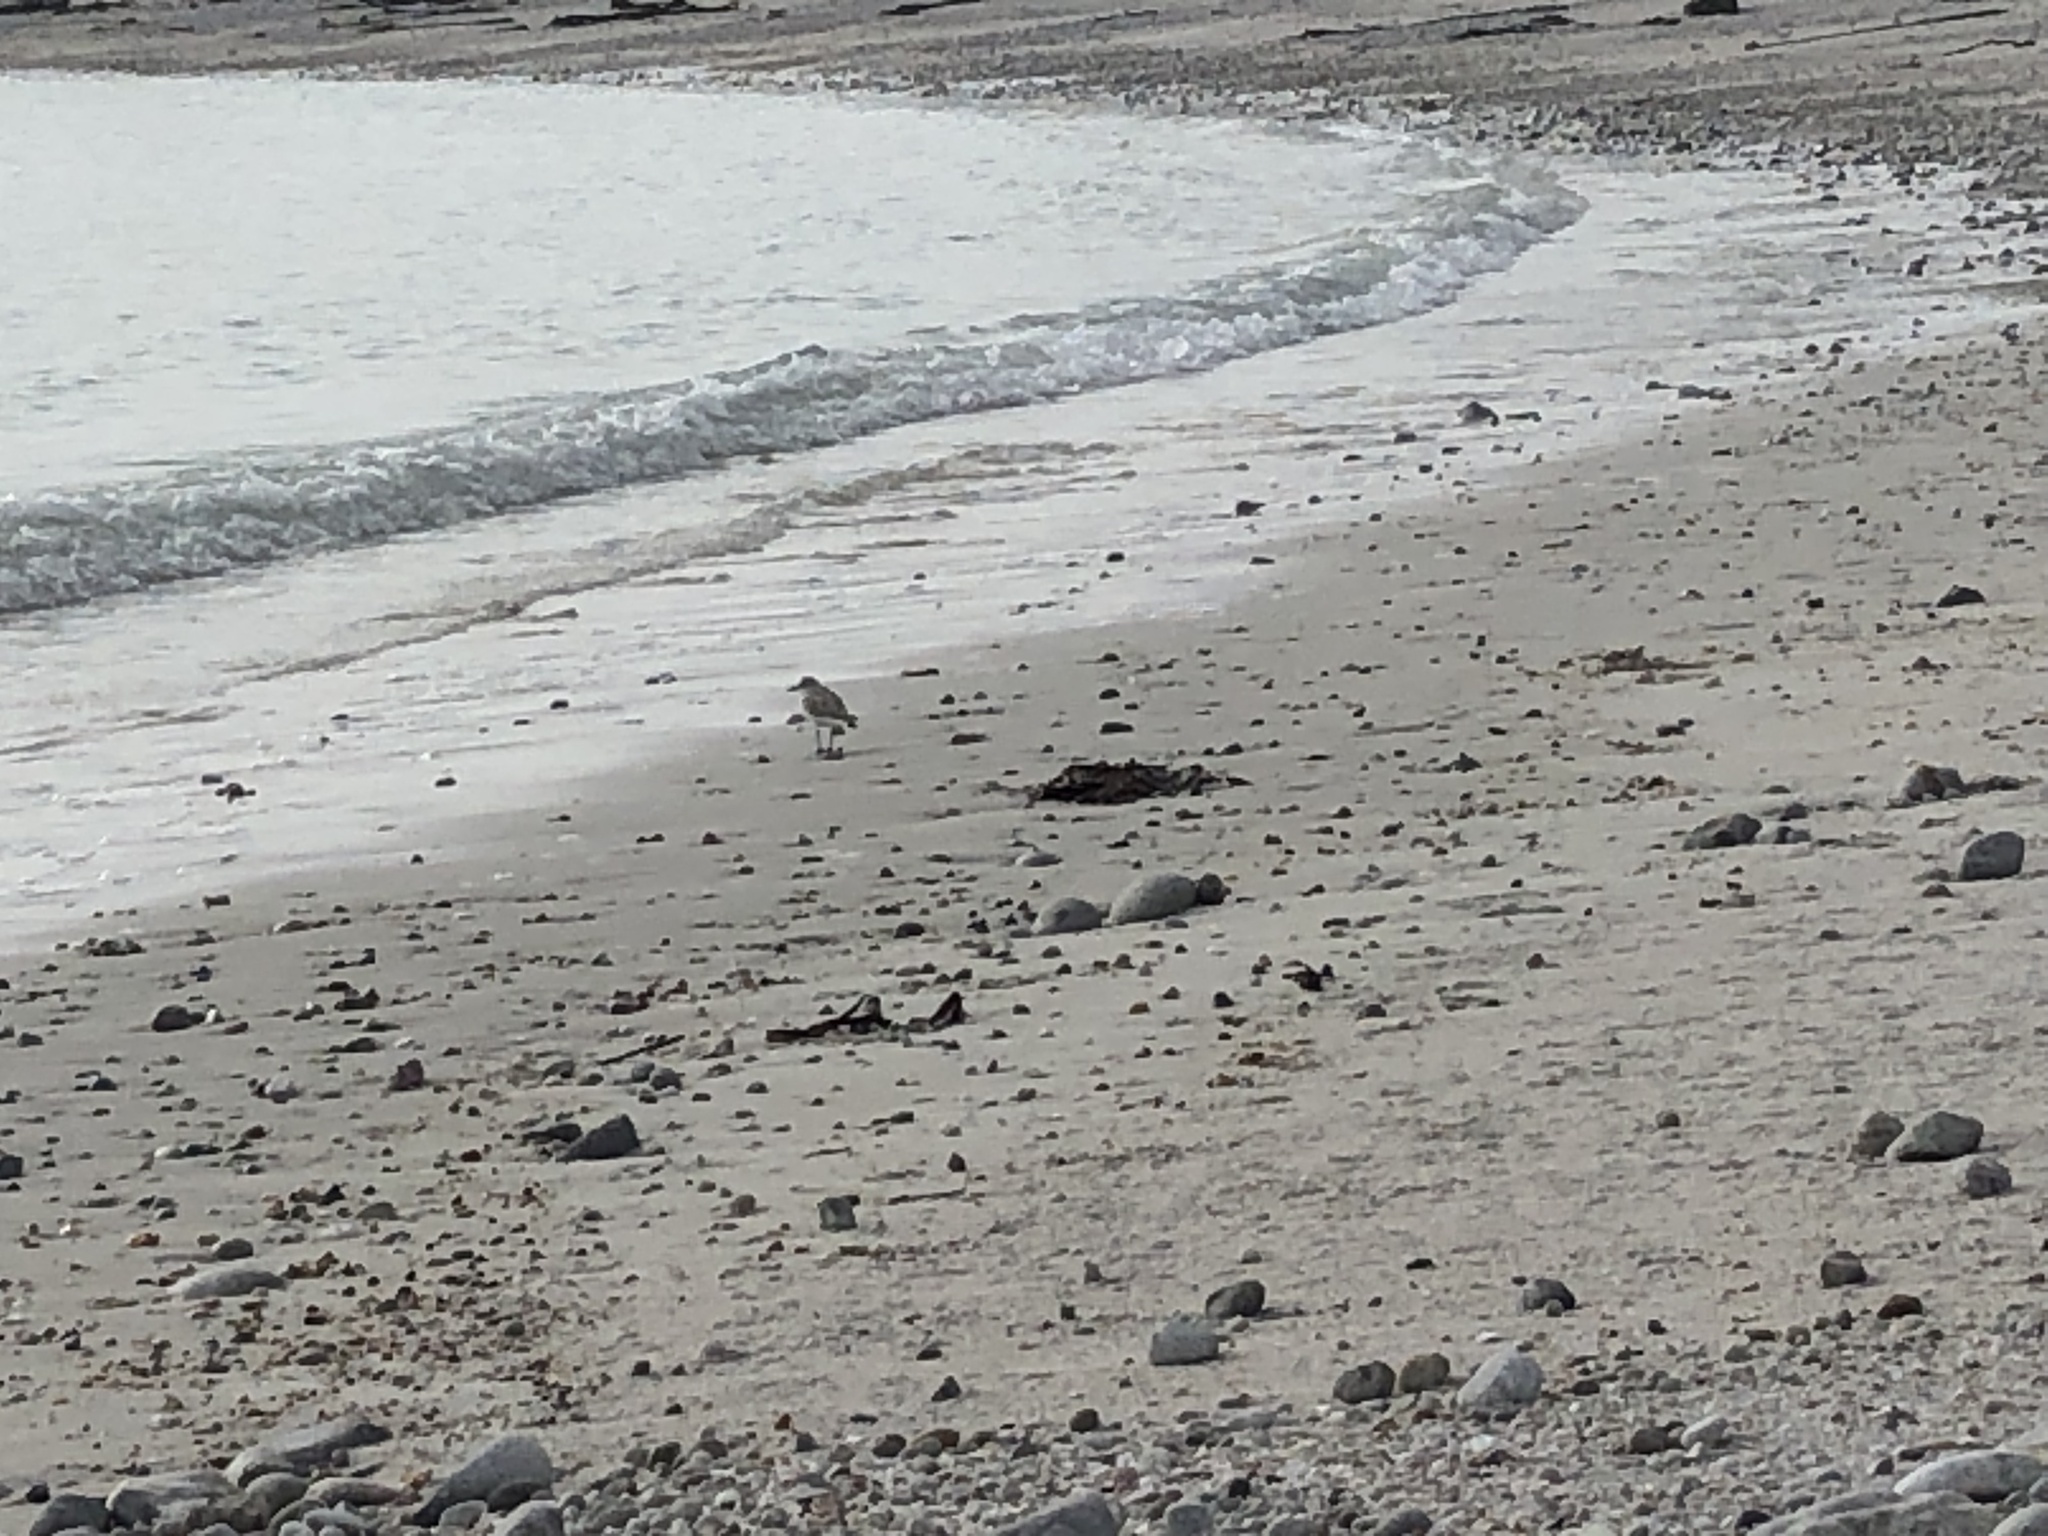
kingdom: Animalia
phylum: Chordata
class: Aves
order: Charadriiformes
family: Charadriidae
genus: Anarhynchus
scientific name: Anarhynchus
